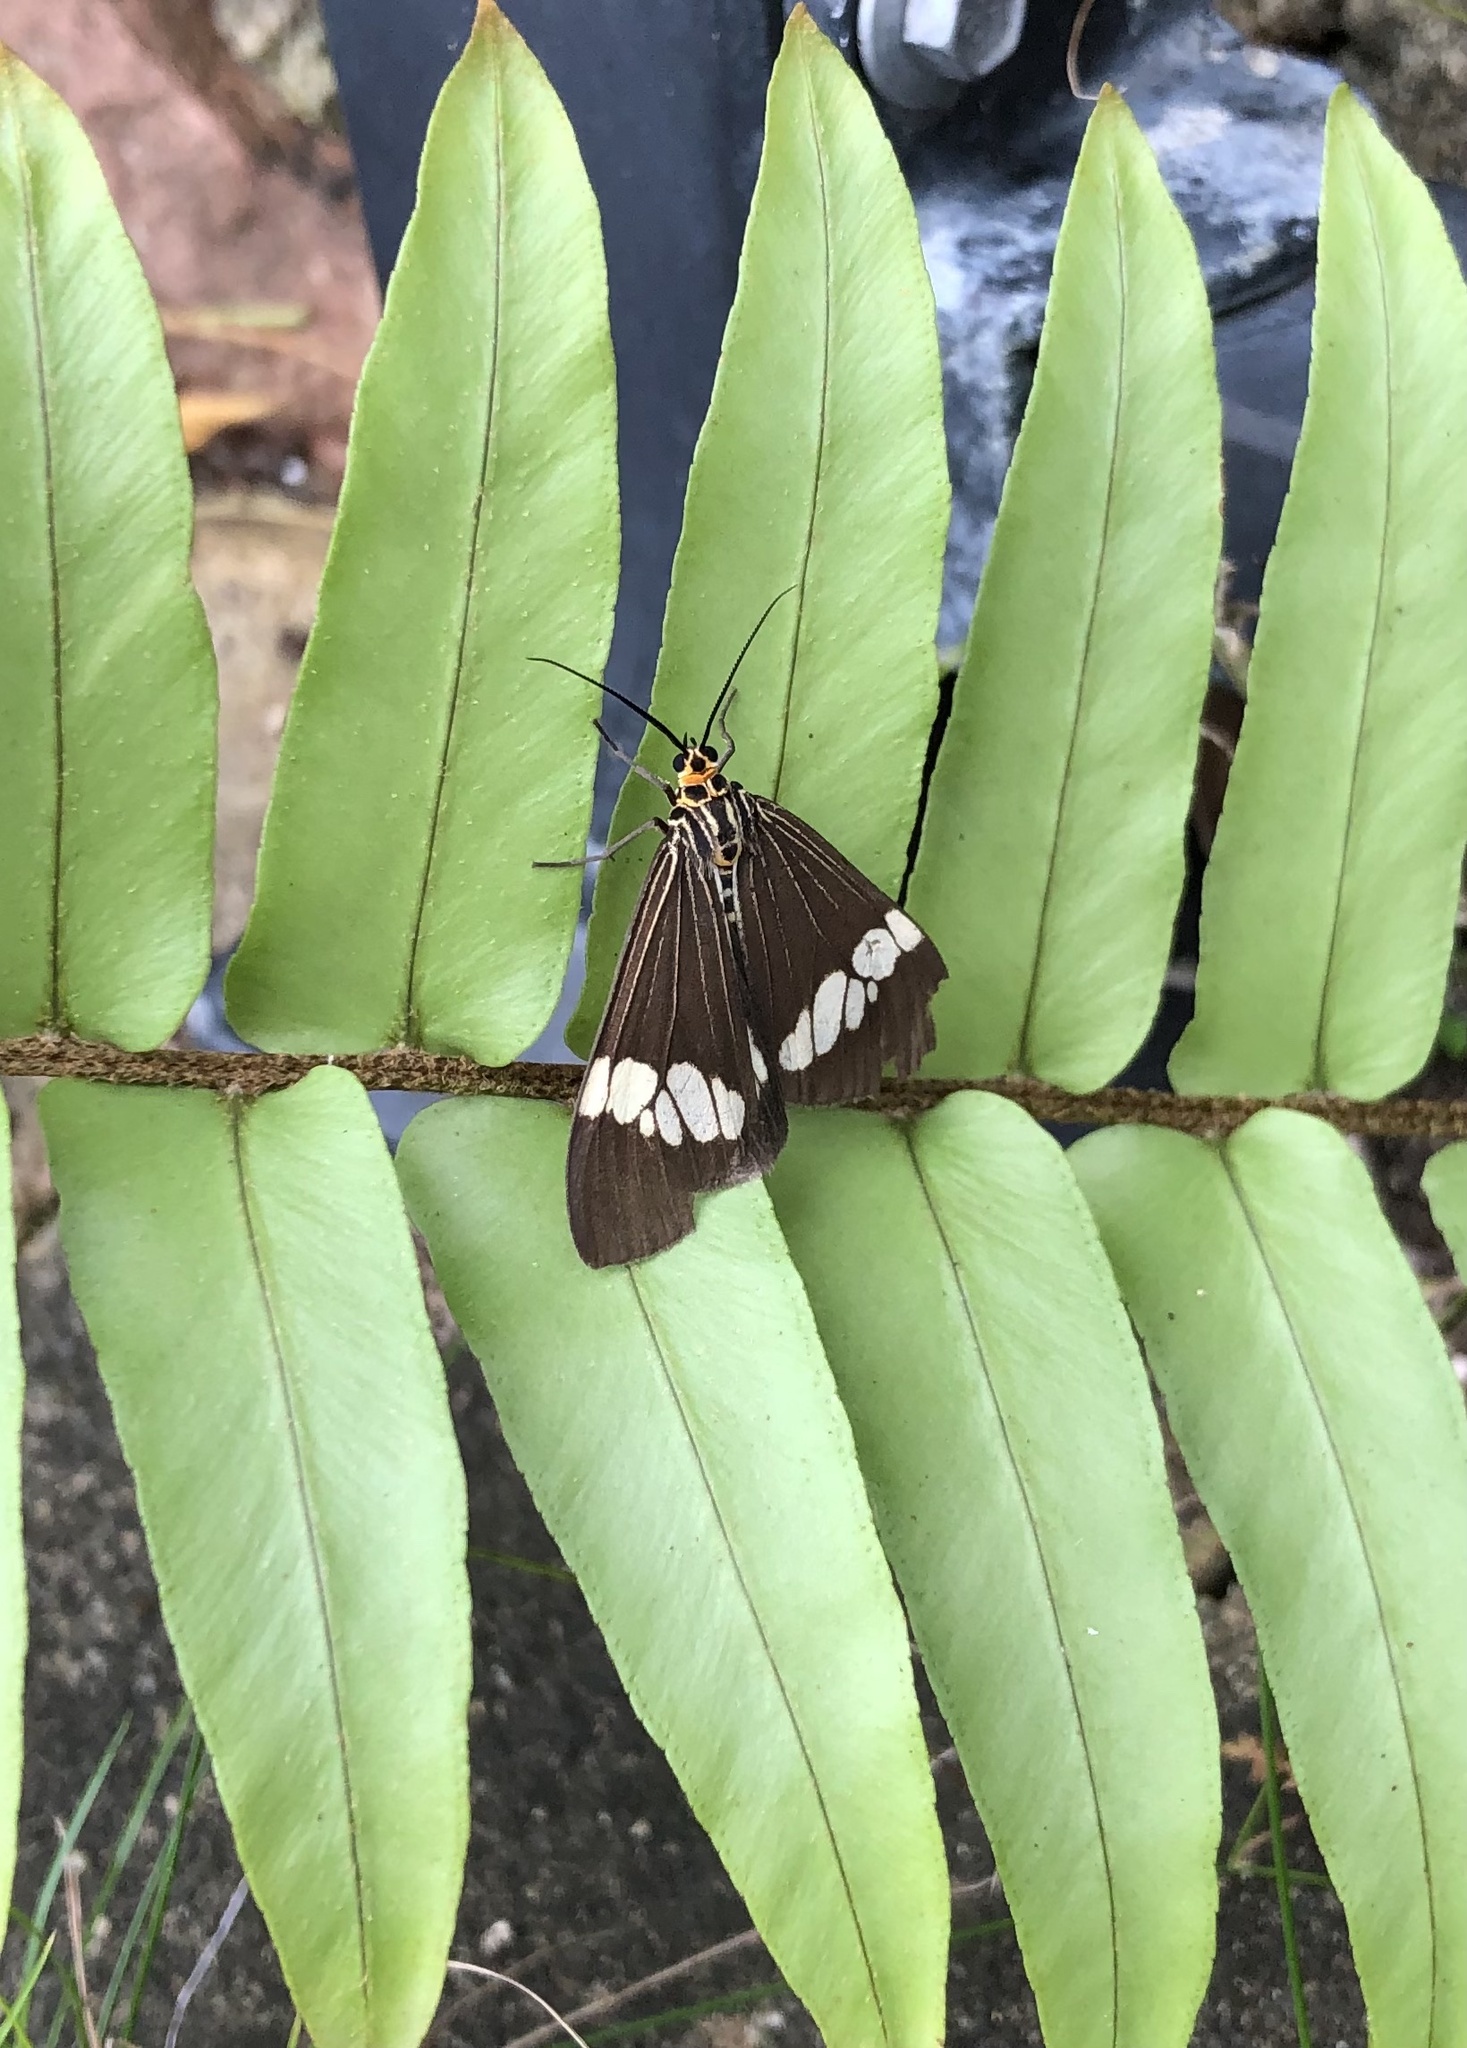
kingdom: Animalia
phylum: Arthropoda
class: Insecta
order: Lepidoptera
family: Erebidae
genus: Nyctemera
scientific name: Nyctemera baulus
